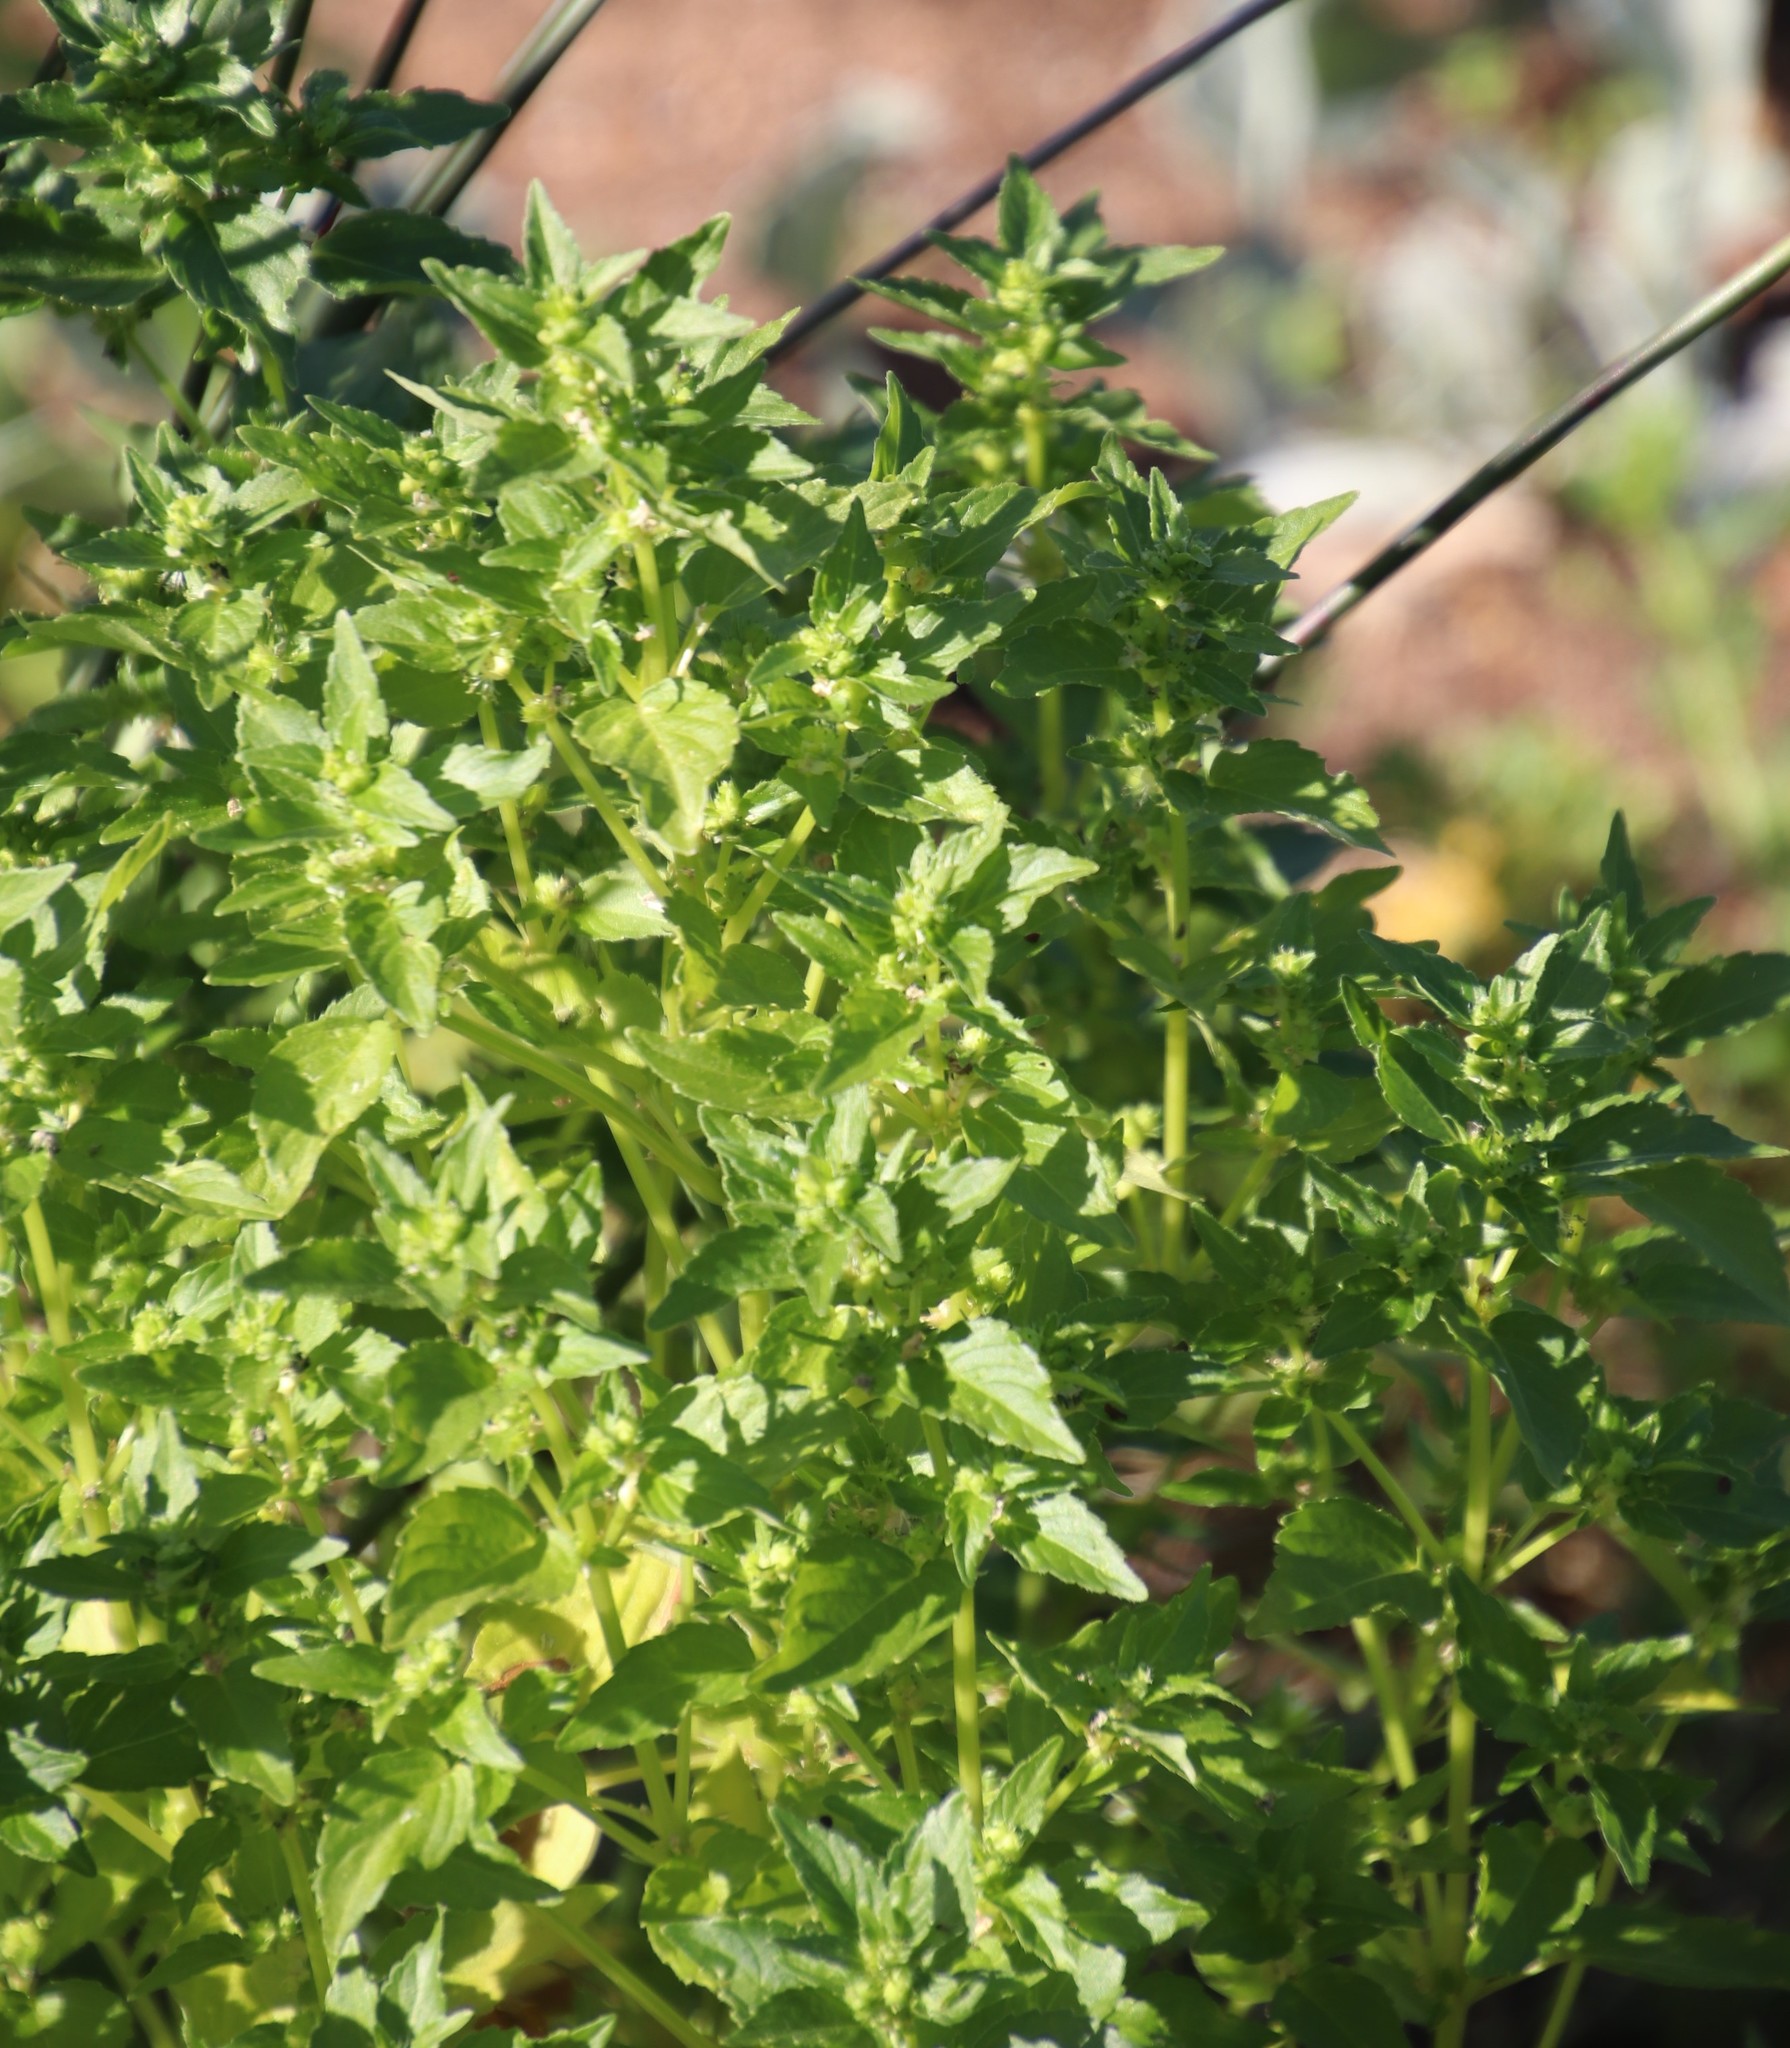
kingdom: Plantae
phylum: Tracheophyta
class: Magnoliopsida
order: Malpighiales
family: Euphorbiaceae
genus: Mercurialis
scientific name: Mercurialis annua
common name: Annual mercury
